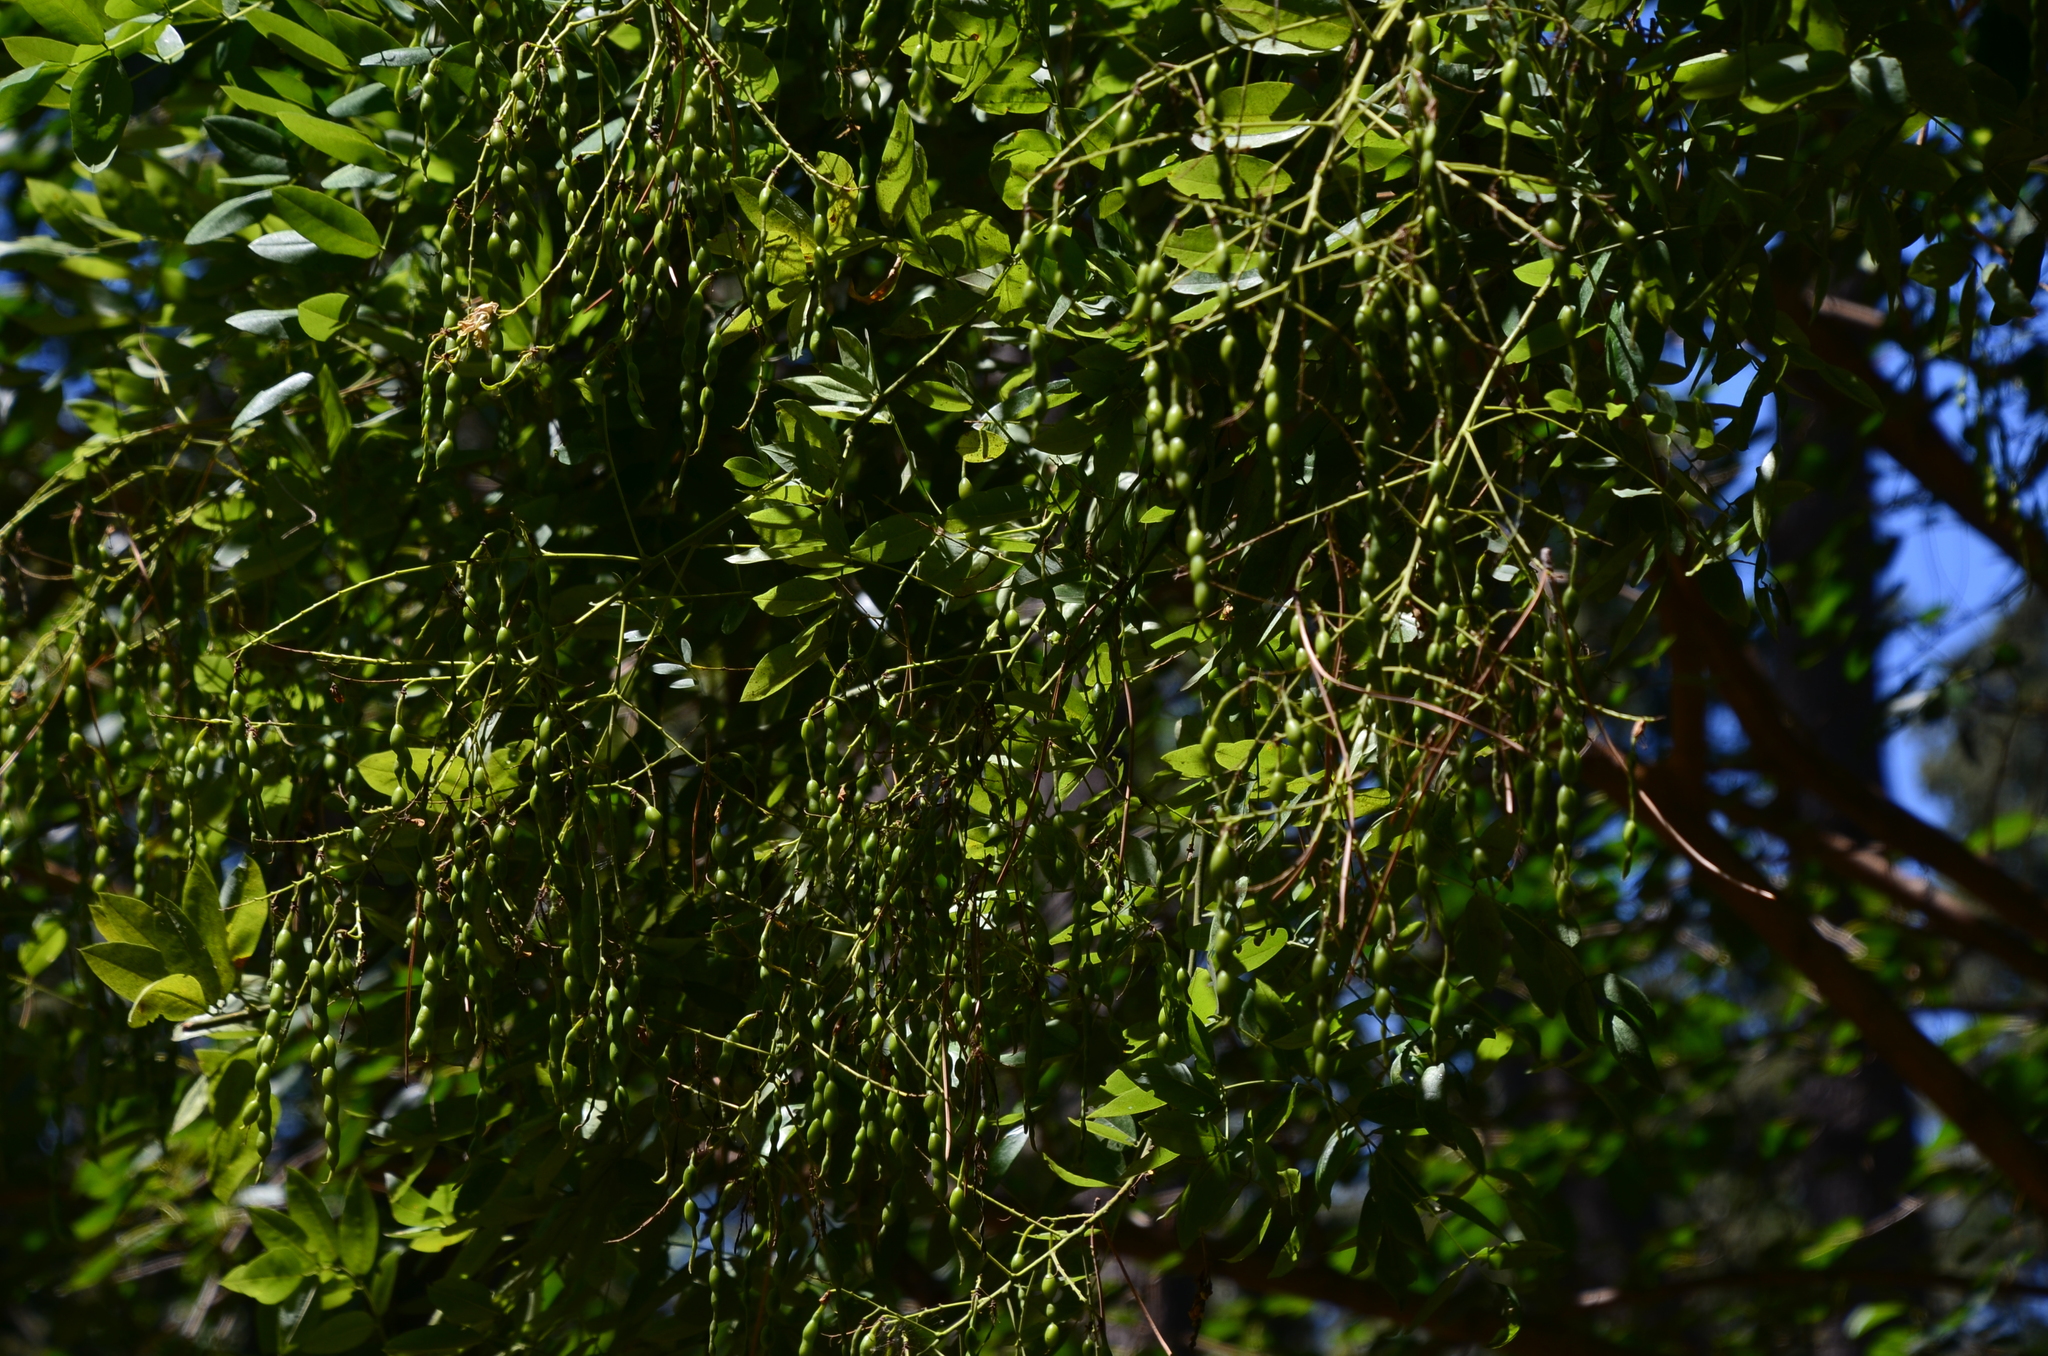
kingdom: Plantae
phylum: Tracheophyta
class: Magnoliopsida
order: Fabales
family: Fabaceae
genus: Styphnolobium
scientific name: Styphnolobium japonicum
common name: Chinese scholartree
